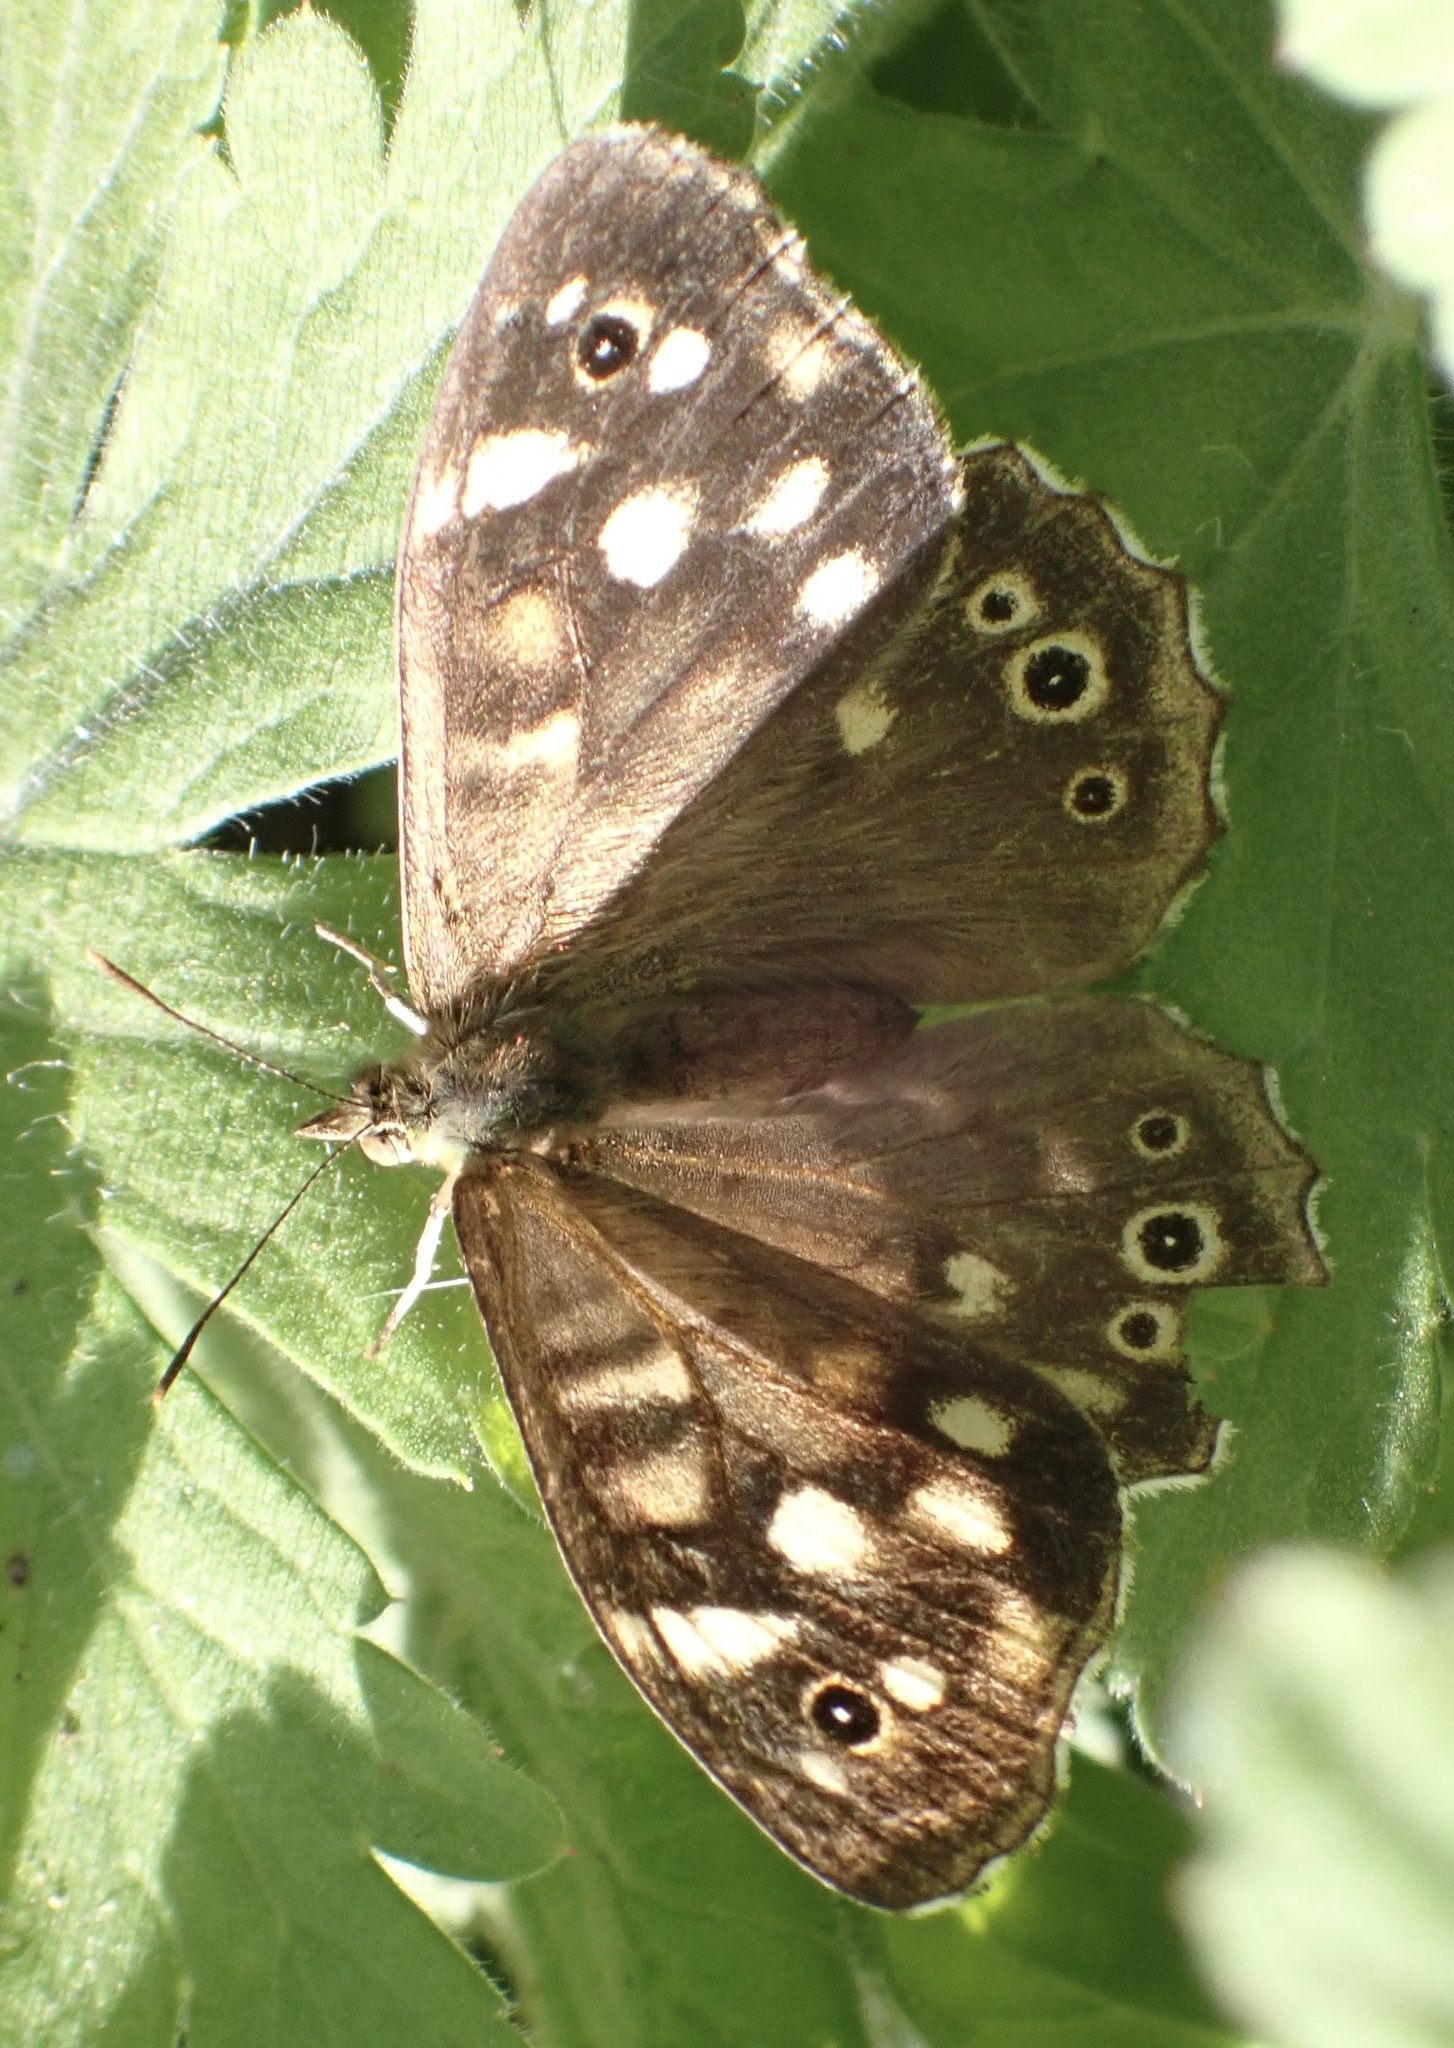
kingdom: Animalia
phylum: Arthropoda
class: Insecta
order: Lepidoptera
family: Nymphalidae
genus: Pararge
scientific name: Pararge aegeria
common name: Speckled wood
